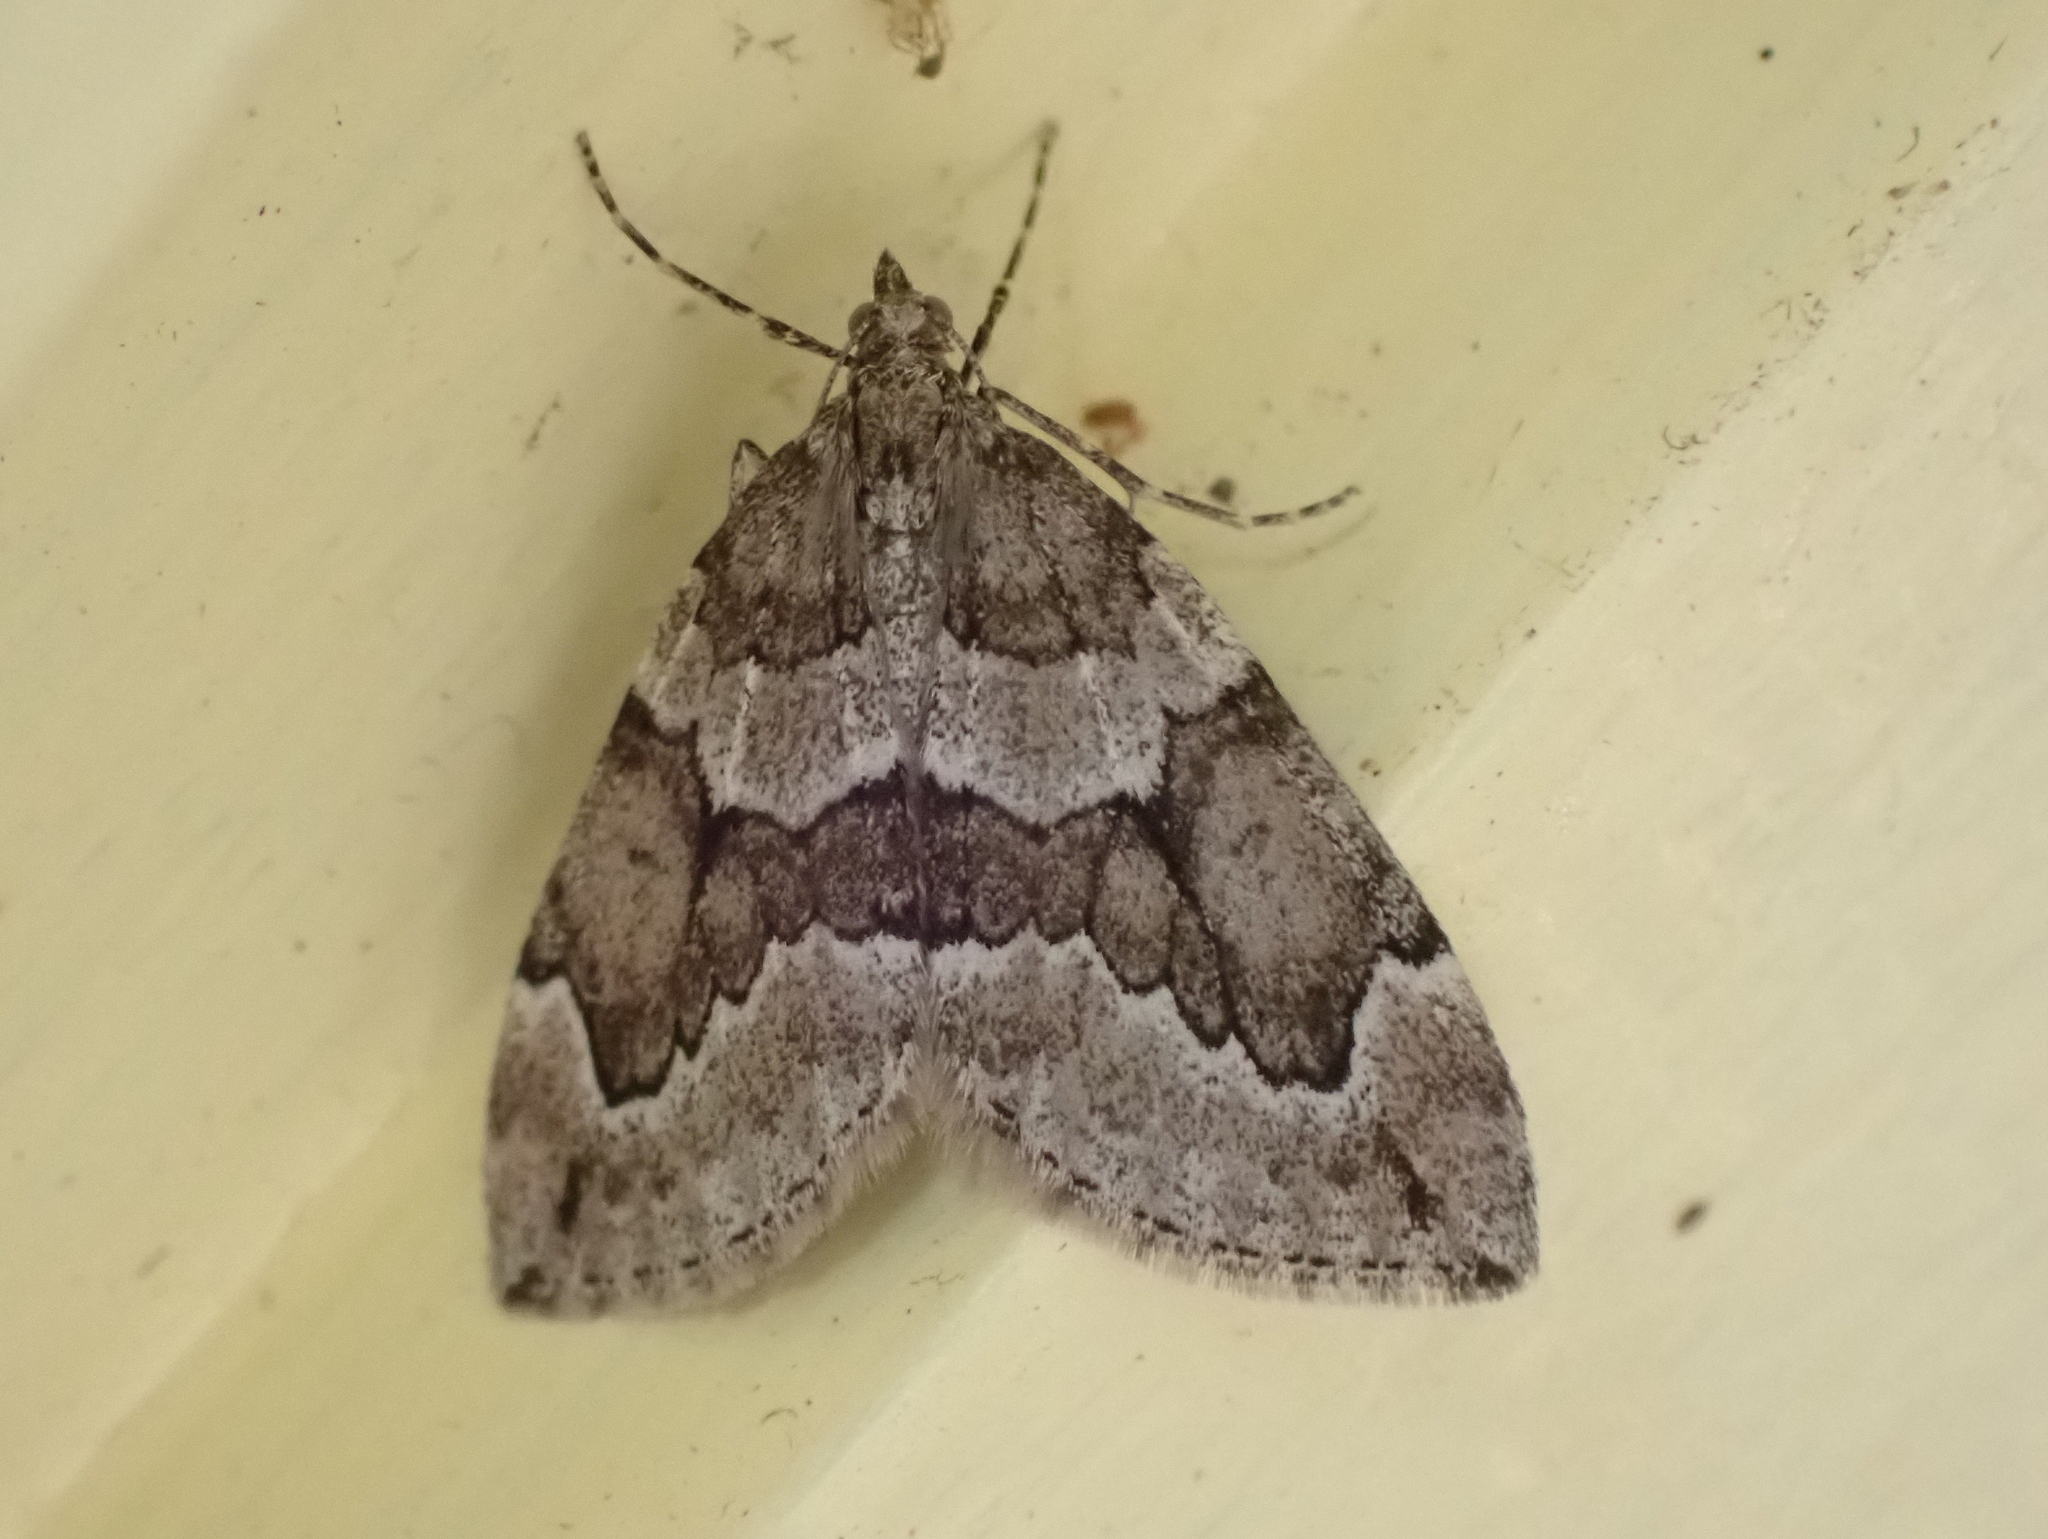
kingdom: Animalia
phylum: Arthropoda
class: Insecta
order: Lepidoptera
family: Geometridae
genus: Thera
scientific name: Thera juniperata
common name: Juniper carpet
